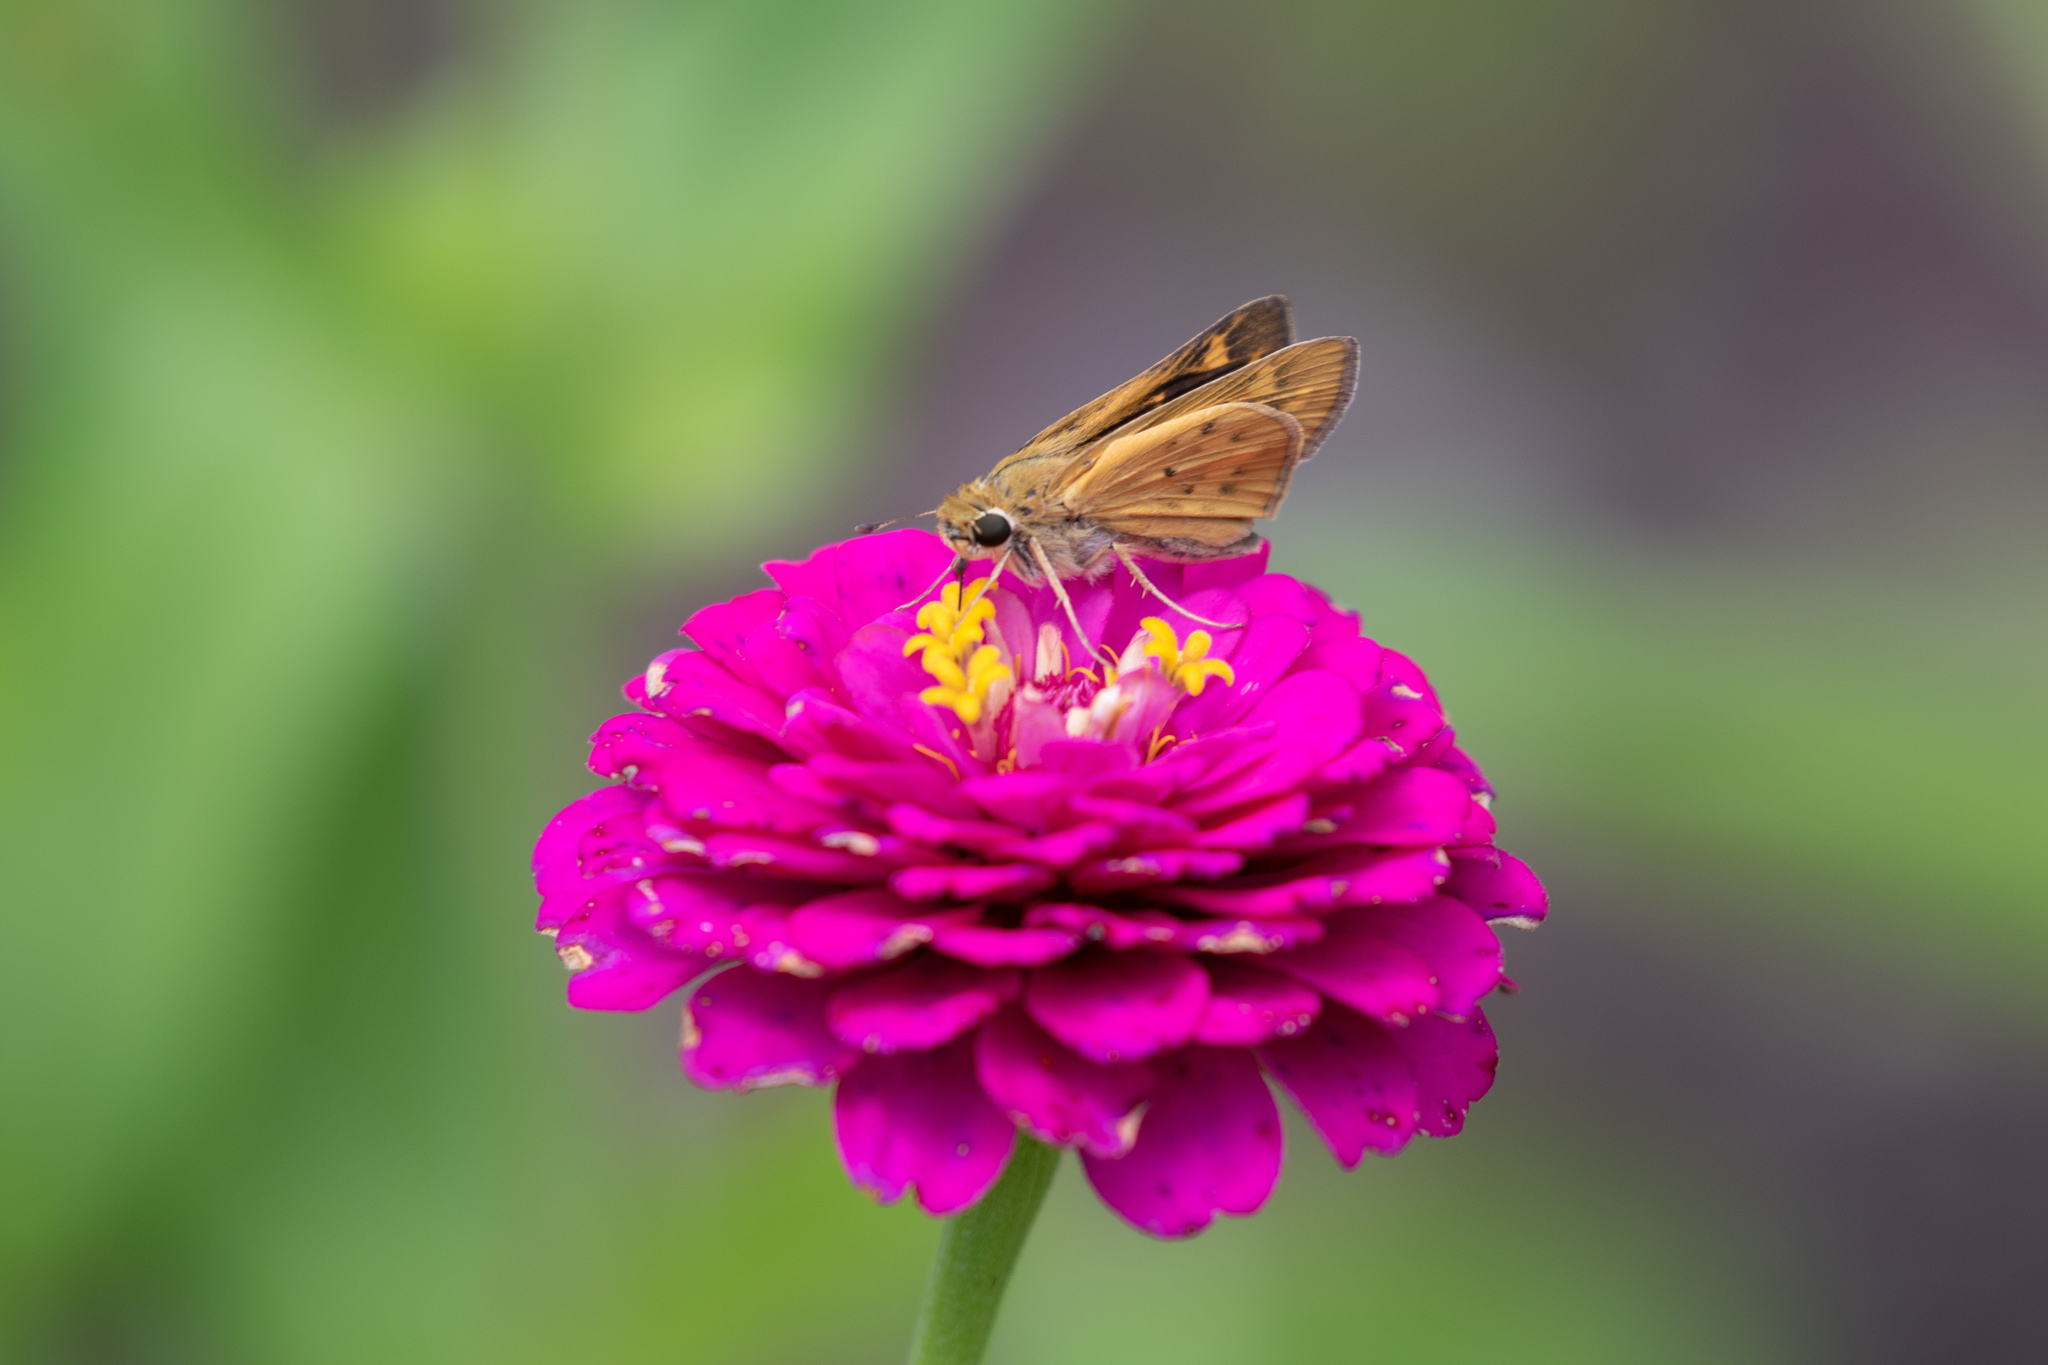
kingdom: Animalia
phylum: Arthropoda
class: Insecta
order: Lepidoptera
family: Hesperiidae
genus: Hylephila
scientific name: Hylephila phyleus
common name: Fiery skipper
